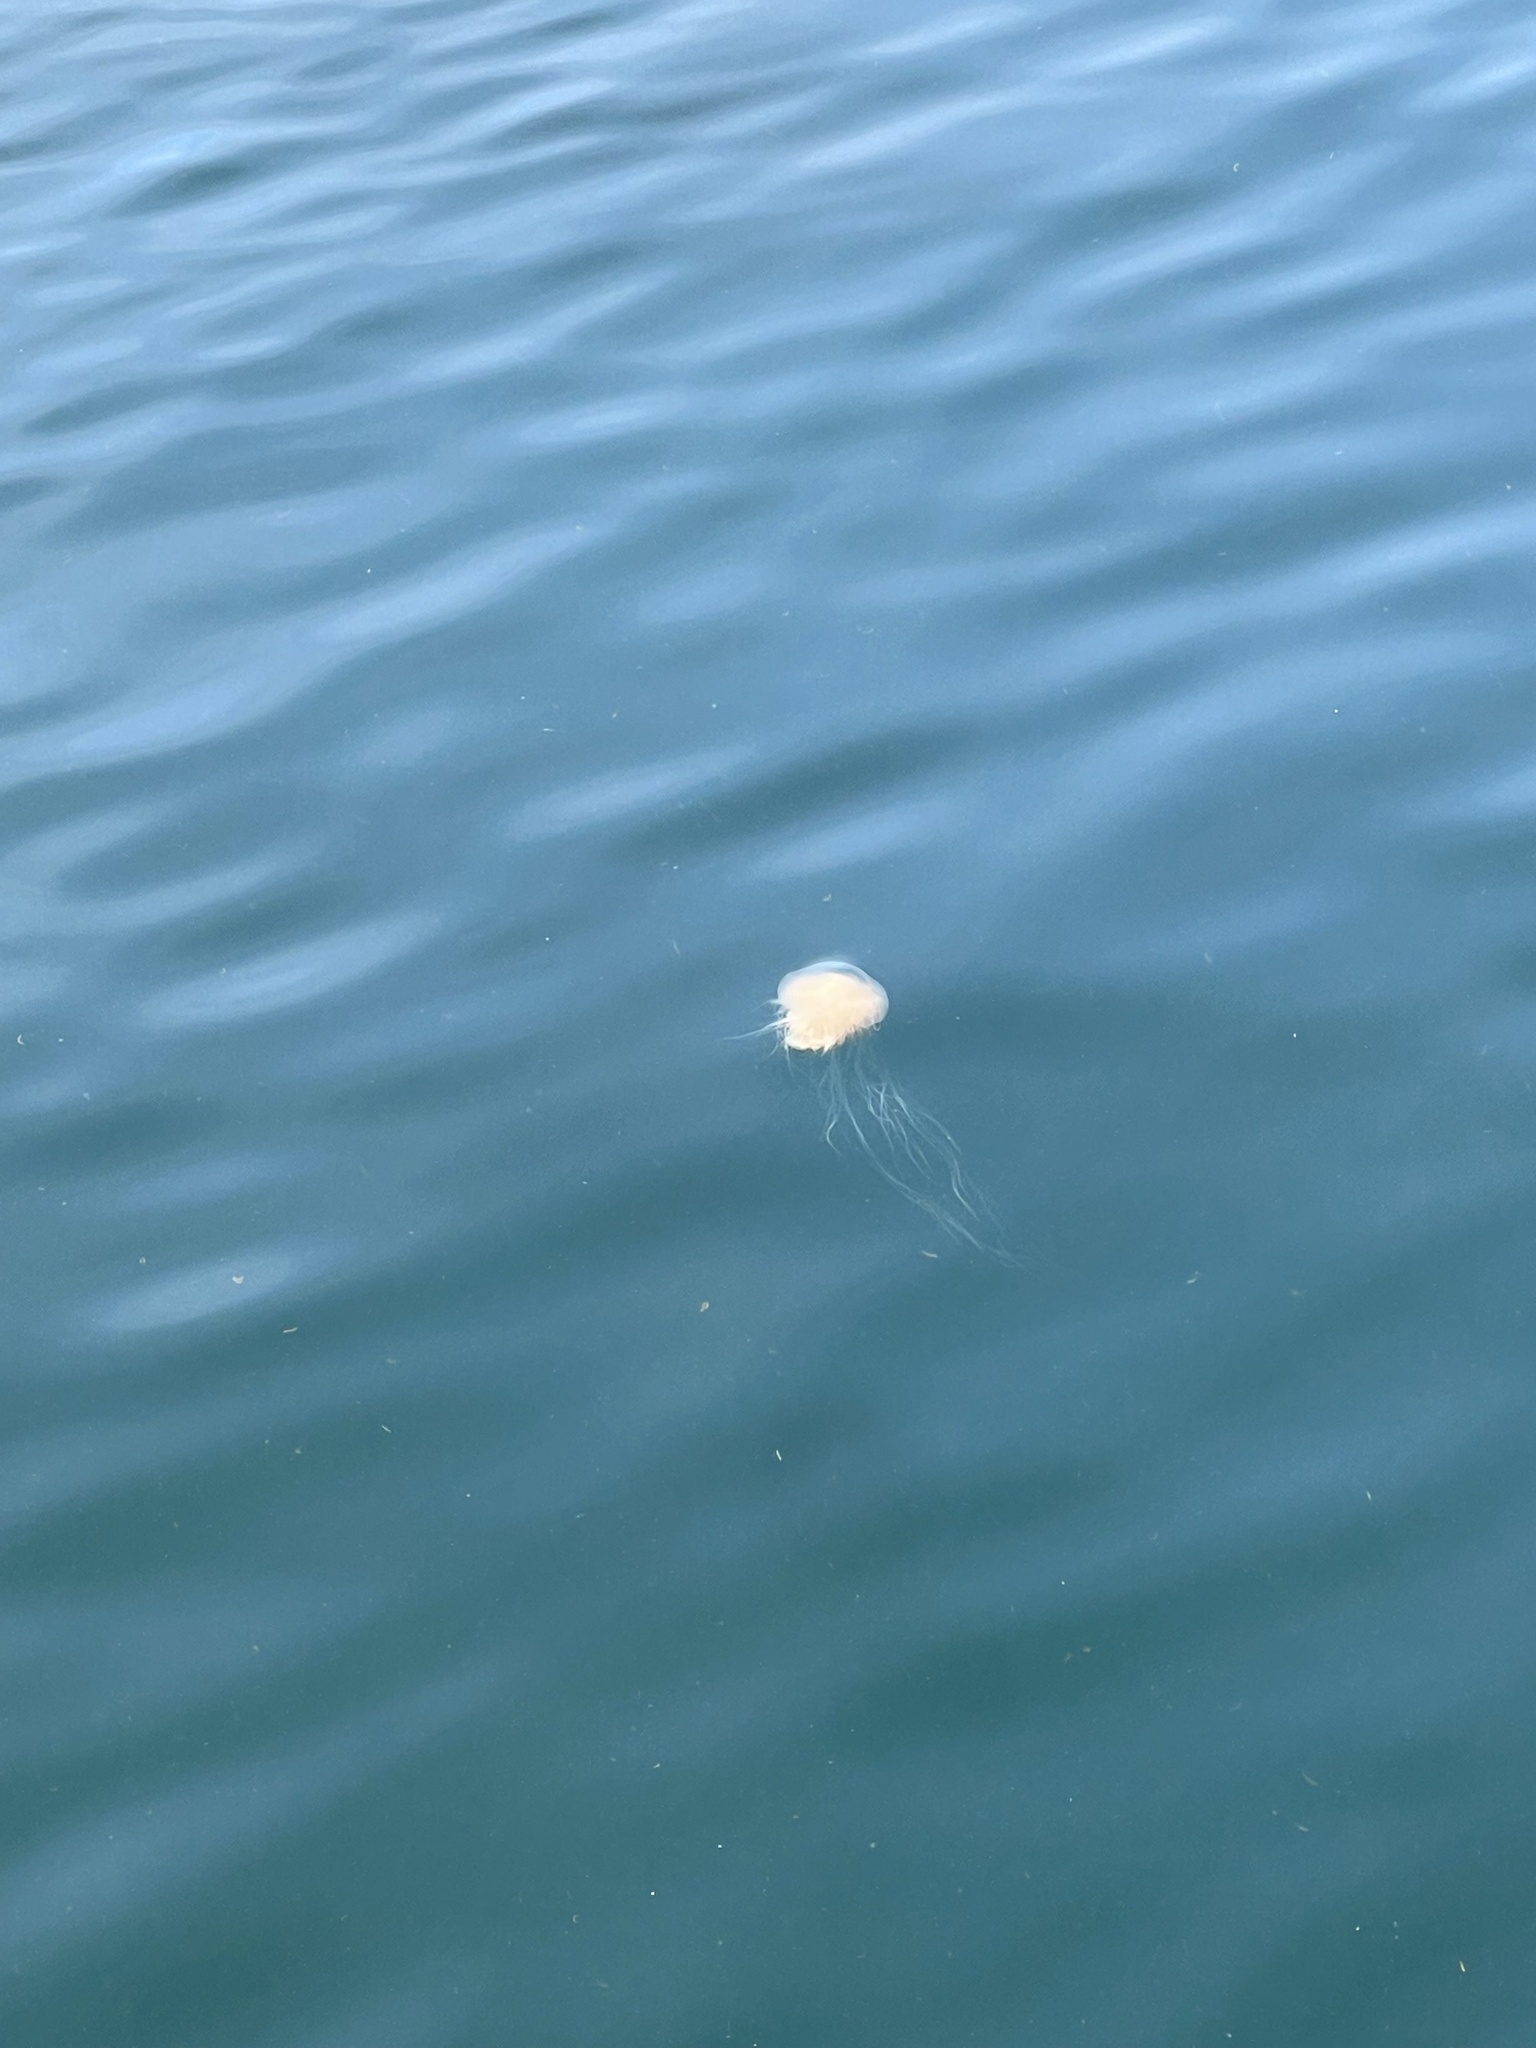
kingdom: Animalia
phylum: Cnidaria
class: Scyphozoa
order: Semaeostomeae
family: Cyaneidae
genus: Cyanea
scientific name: Cyanea ferruginea
